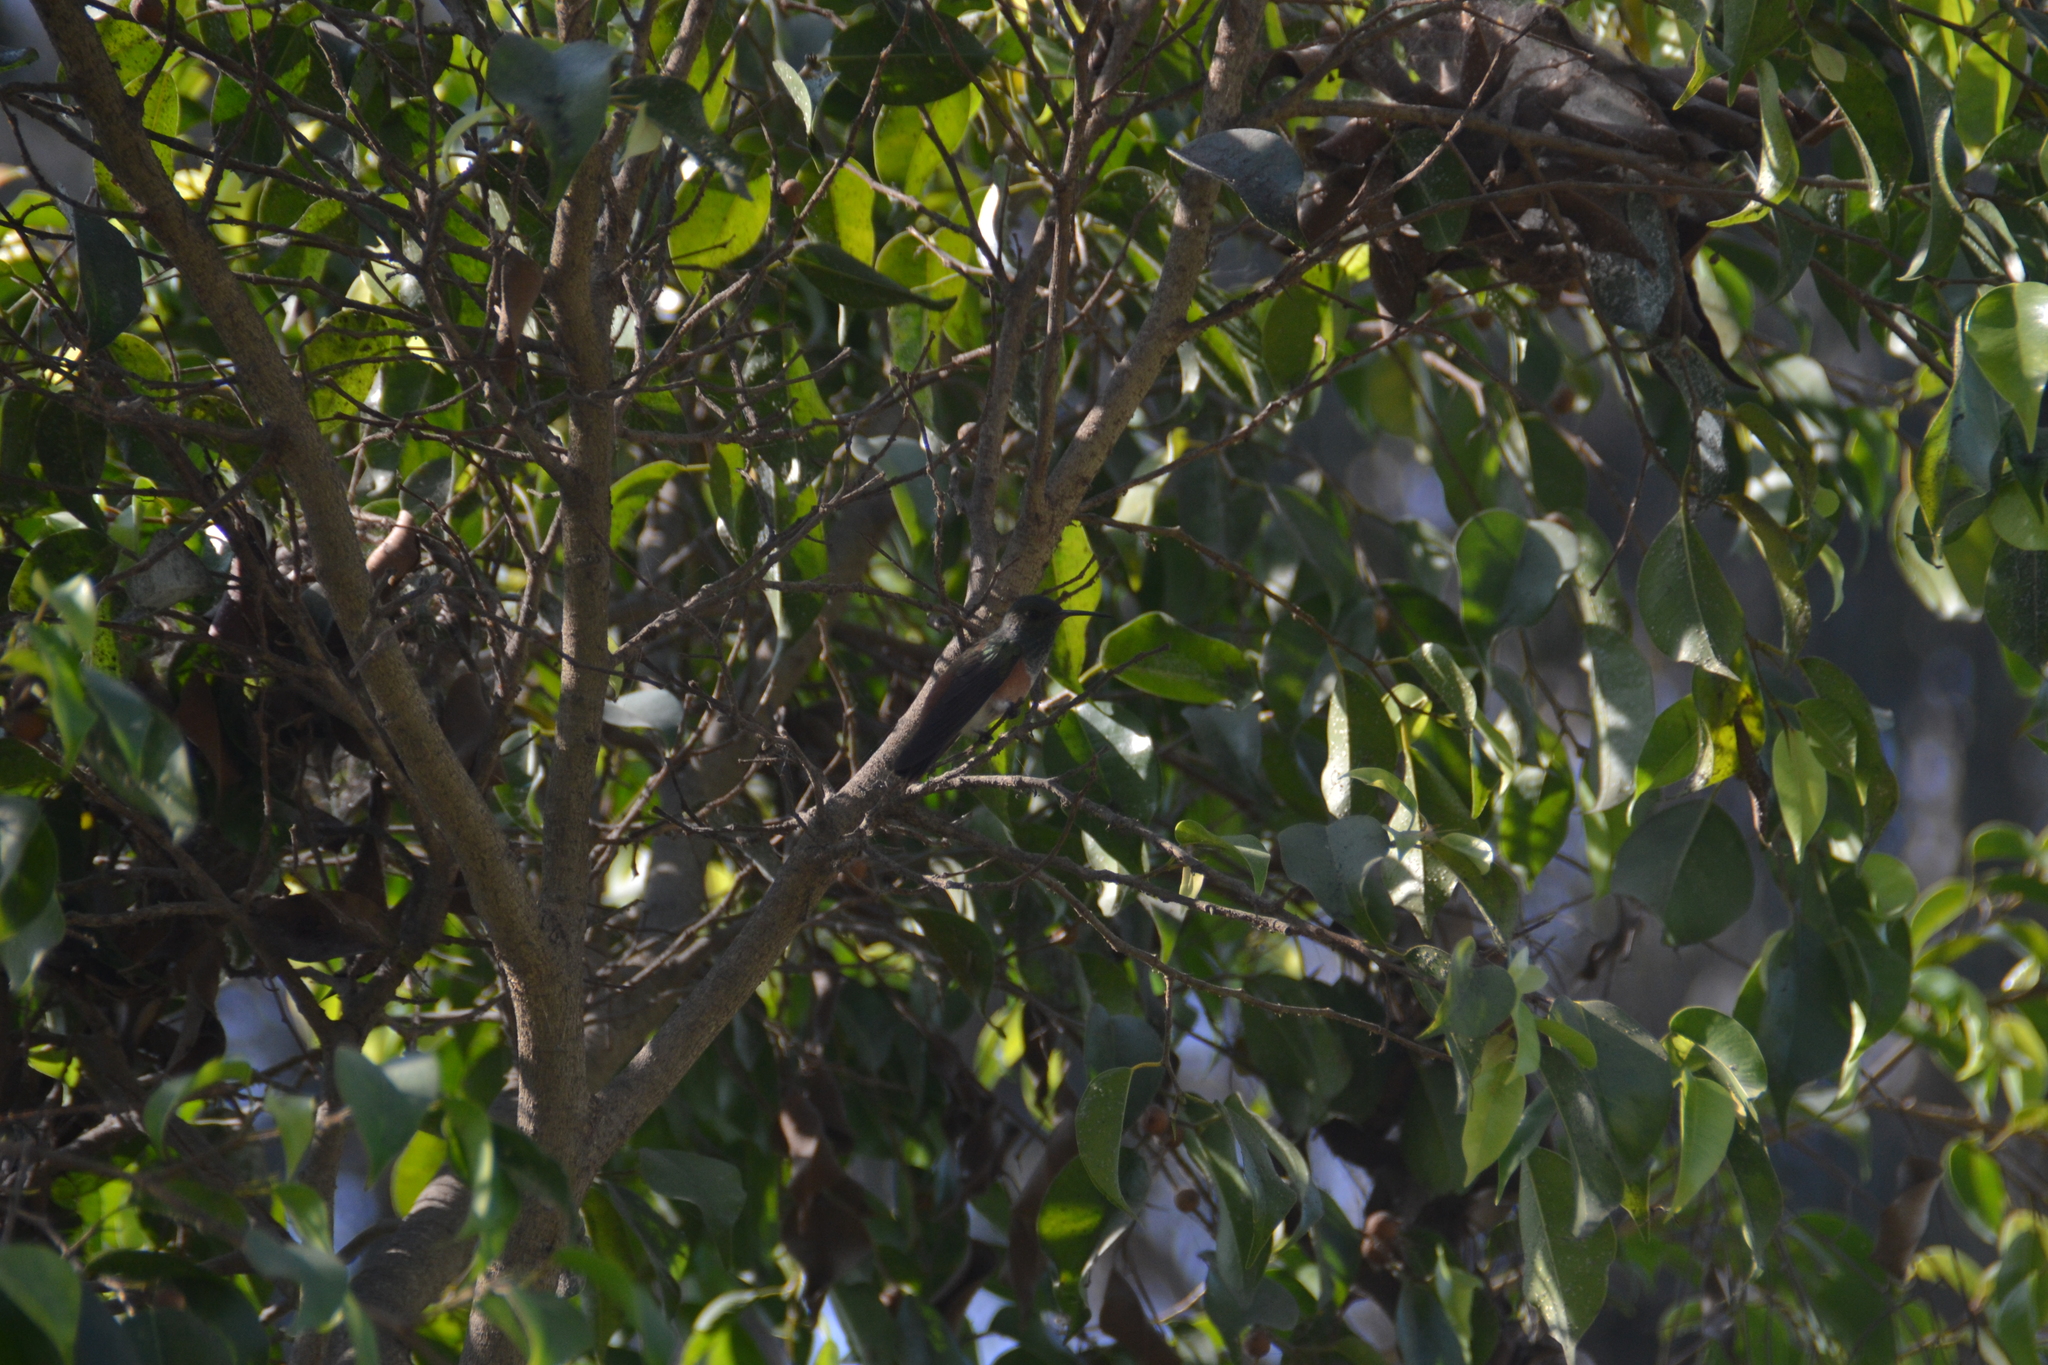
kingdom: Animalia
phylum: Chordata
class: Aves
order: Apodiformes
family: Trochilidae
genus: Amazilis
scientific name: Amazilis amazilia
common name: Amazilia hummingbird
